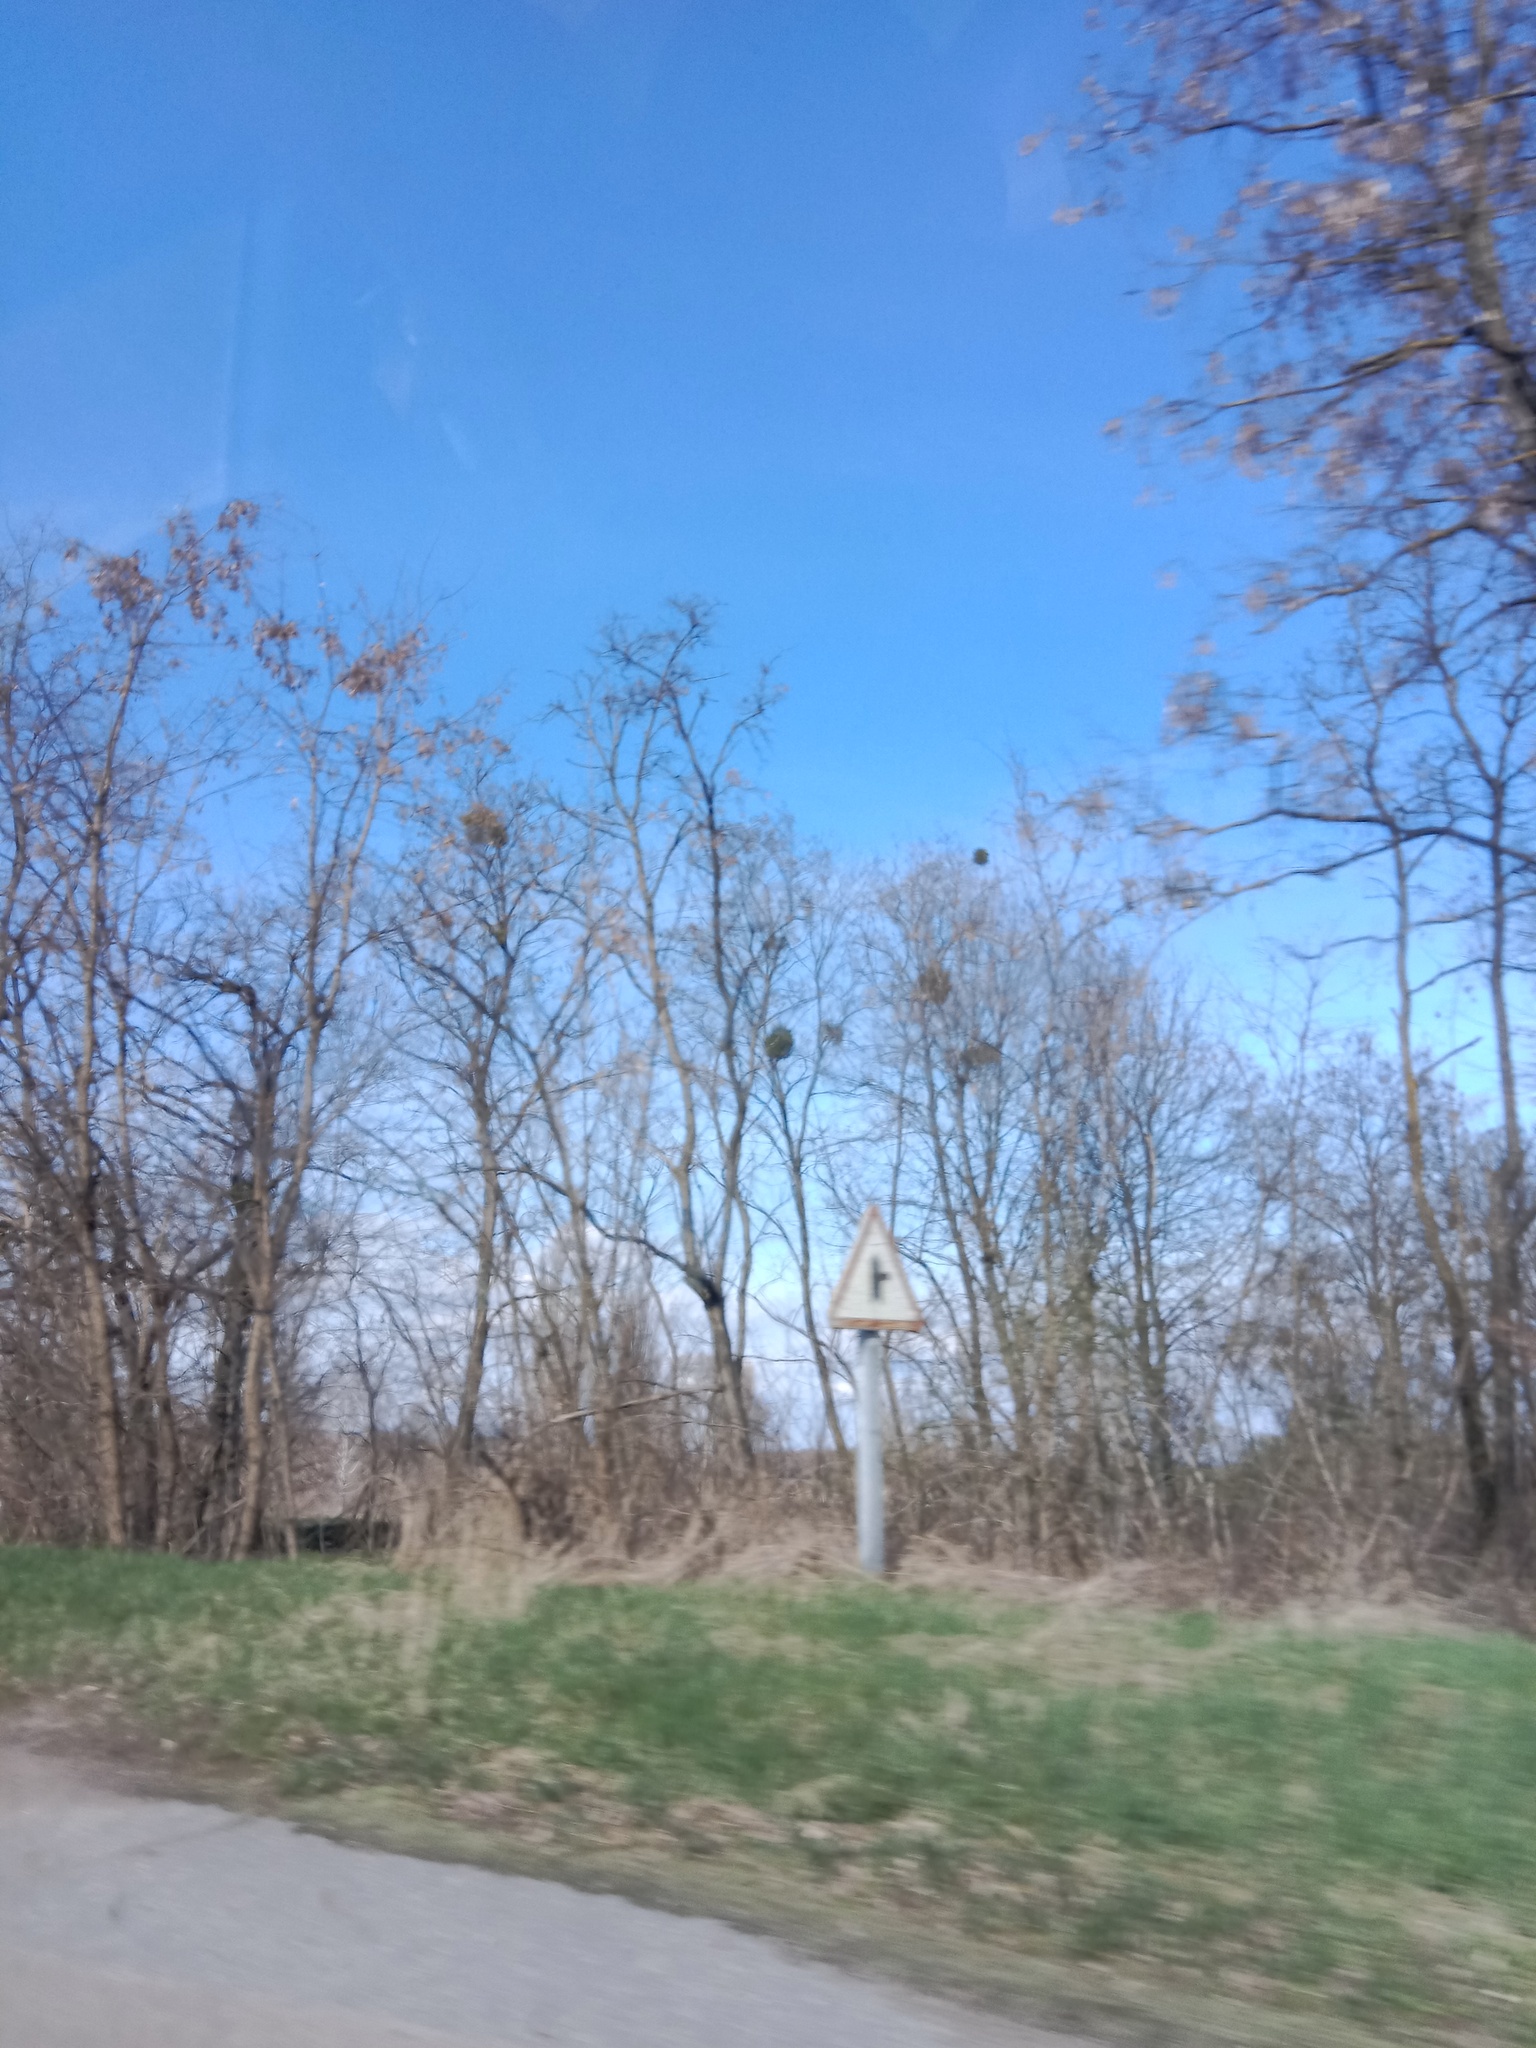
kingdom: Plantae
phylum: Tracheophyta
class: Magnoliopsida
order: Santalales
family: Viscaceae
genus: Viscum
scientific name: Viscum album
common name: Mistletoe
